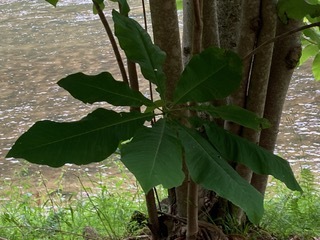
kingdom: Plantae
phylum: Tracheophyta
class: Magnoliopsida
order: Magnoliales
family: Magnoliaceae
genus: Magnolia
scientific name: Magnolia tripetala
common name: Umbrella magnolia
